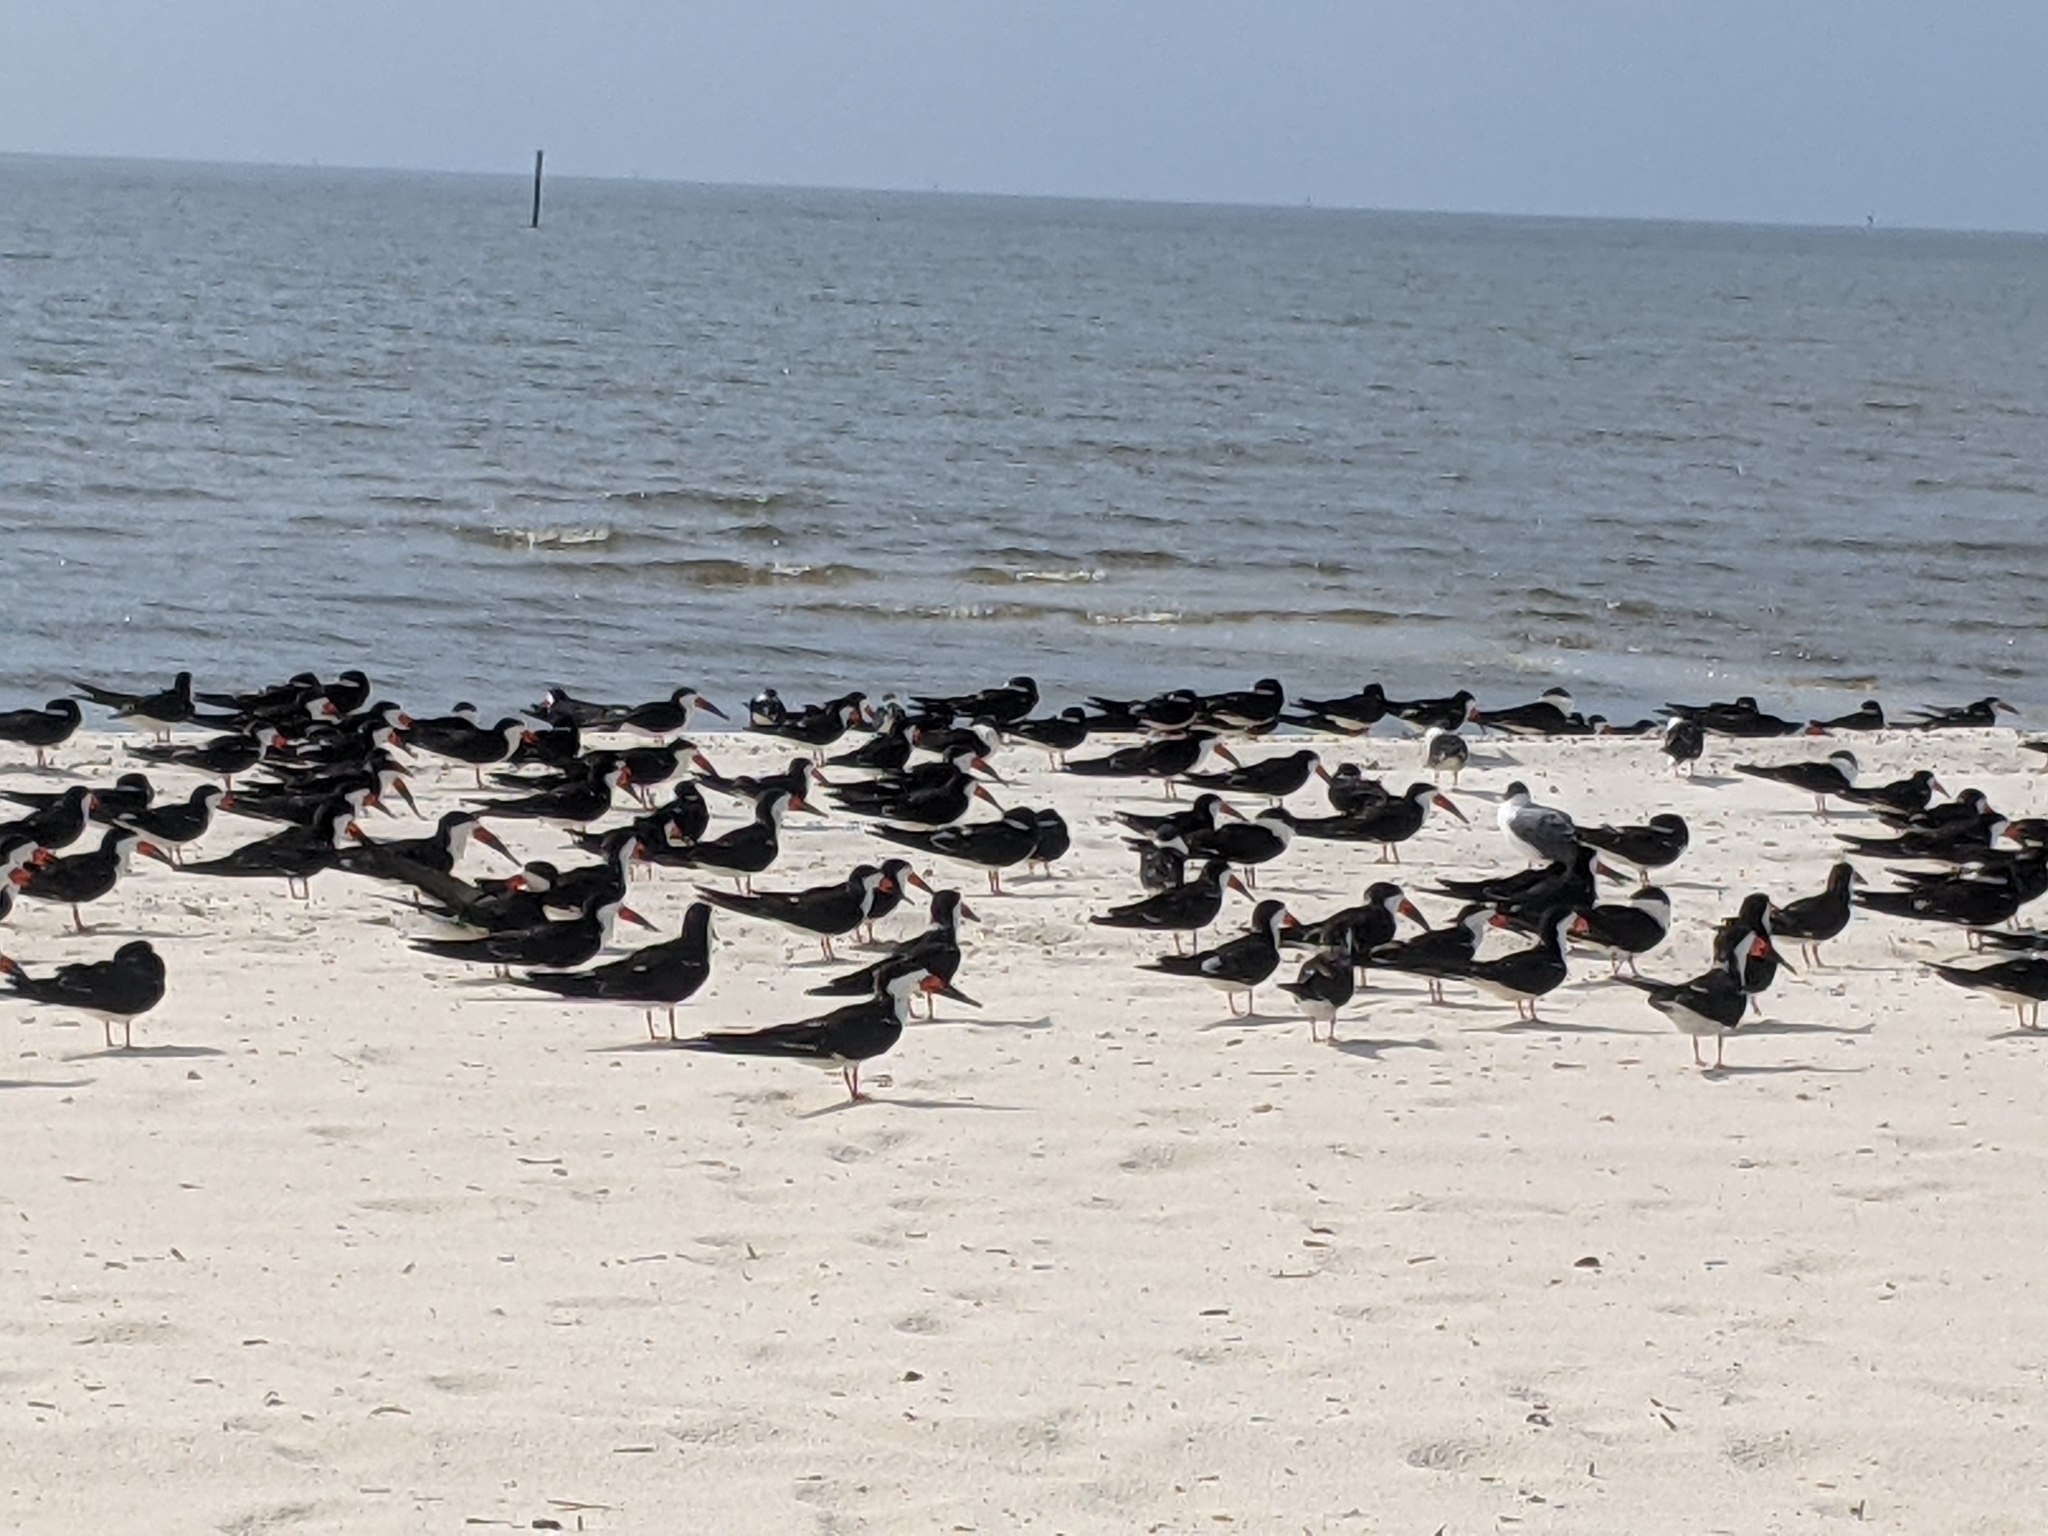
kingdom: Animalia
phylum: Chordata
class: Aves
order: Charadriiformes
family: Laridae
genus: Rynchops
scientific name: Rynchops niger
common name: Black skimmer
